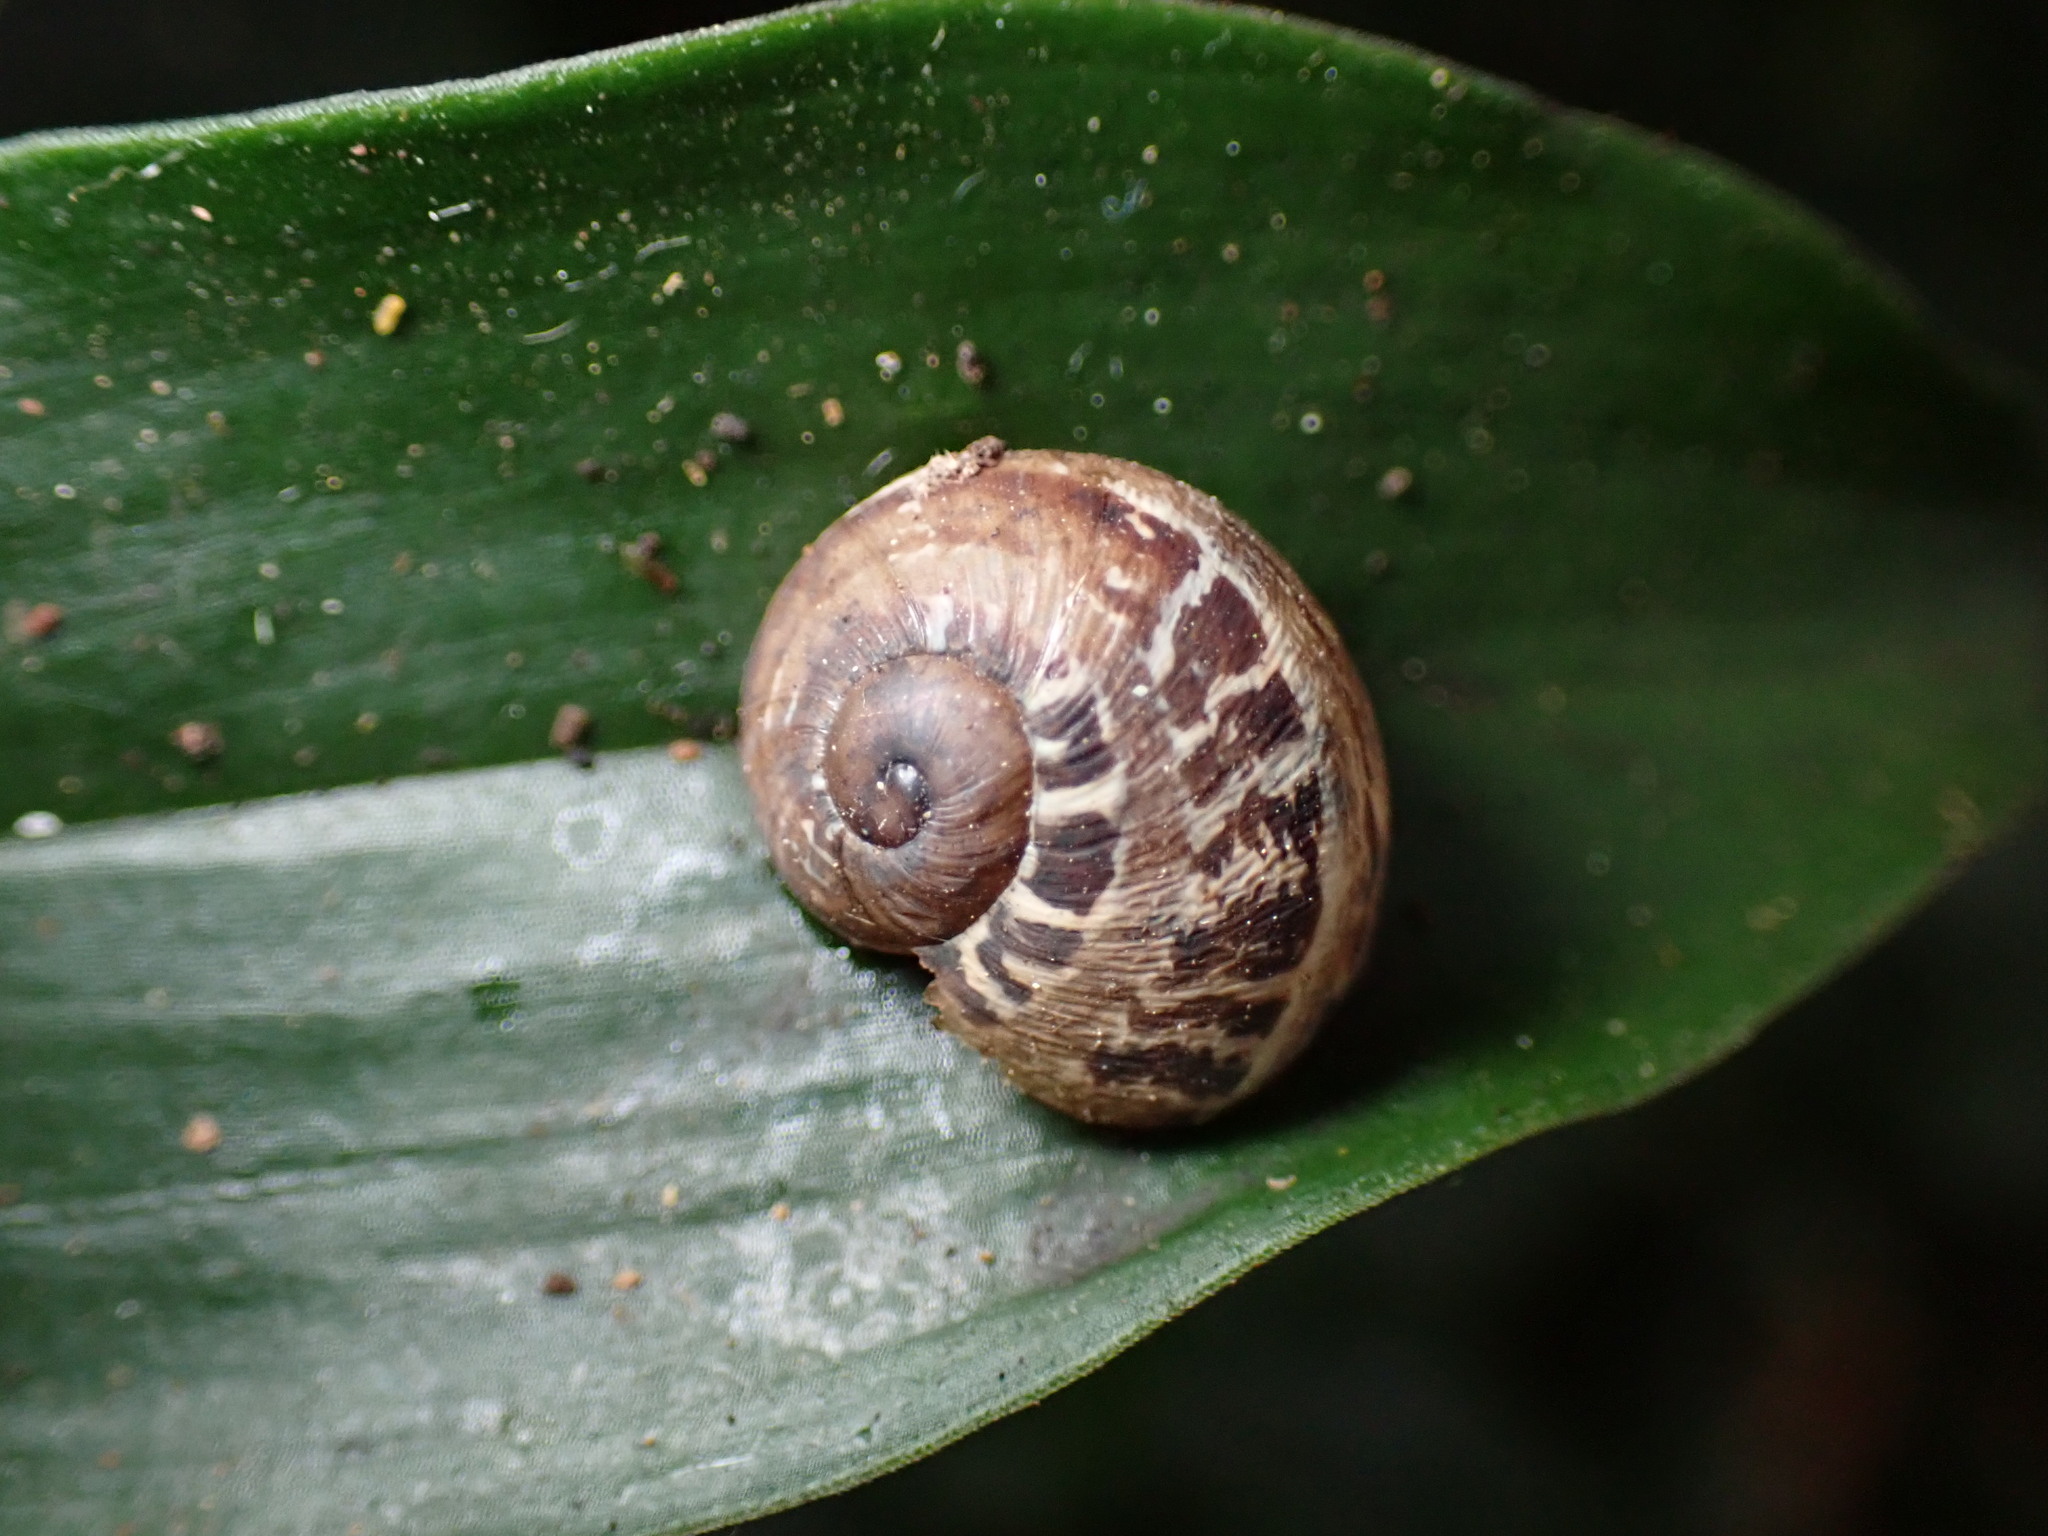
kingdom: Animalia
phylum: Mollusca
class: Gastropoda
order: Stylommatophora
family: Helicidae
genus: Cornu
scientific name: Cornu aspersum
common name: Brown garden snail
